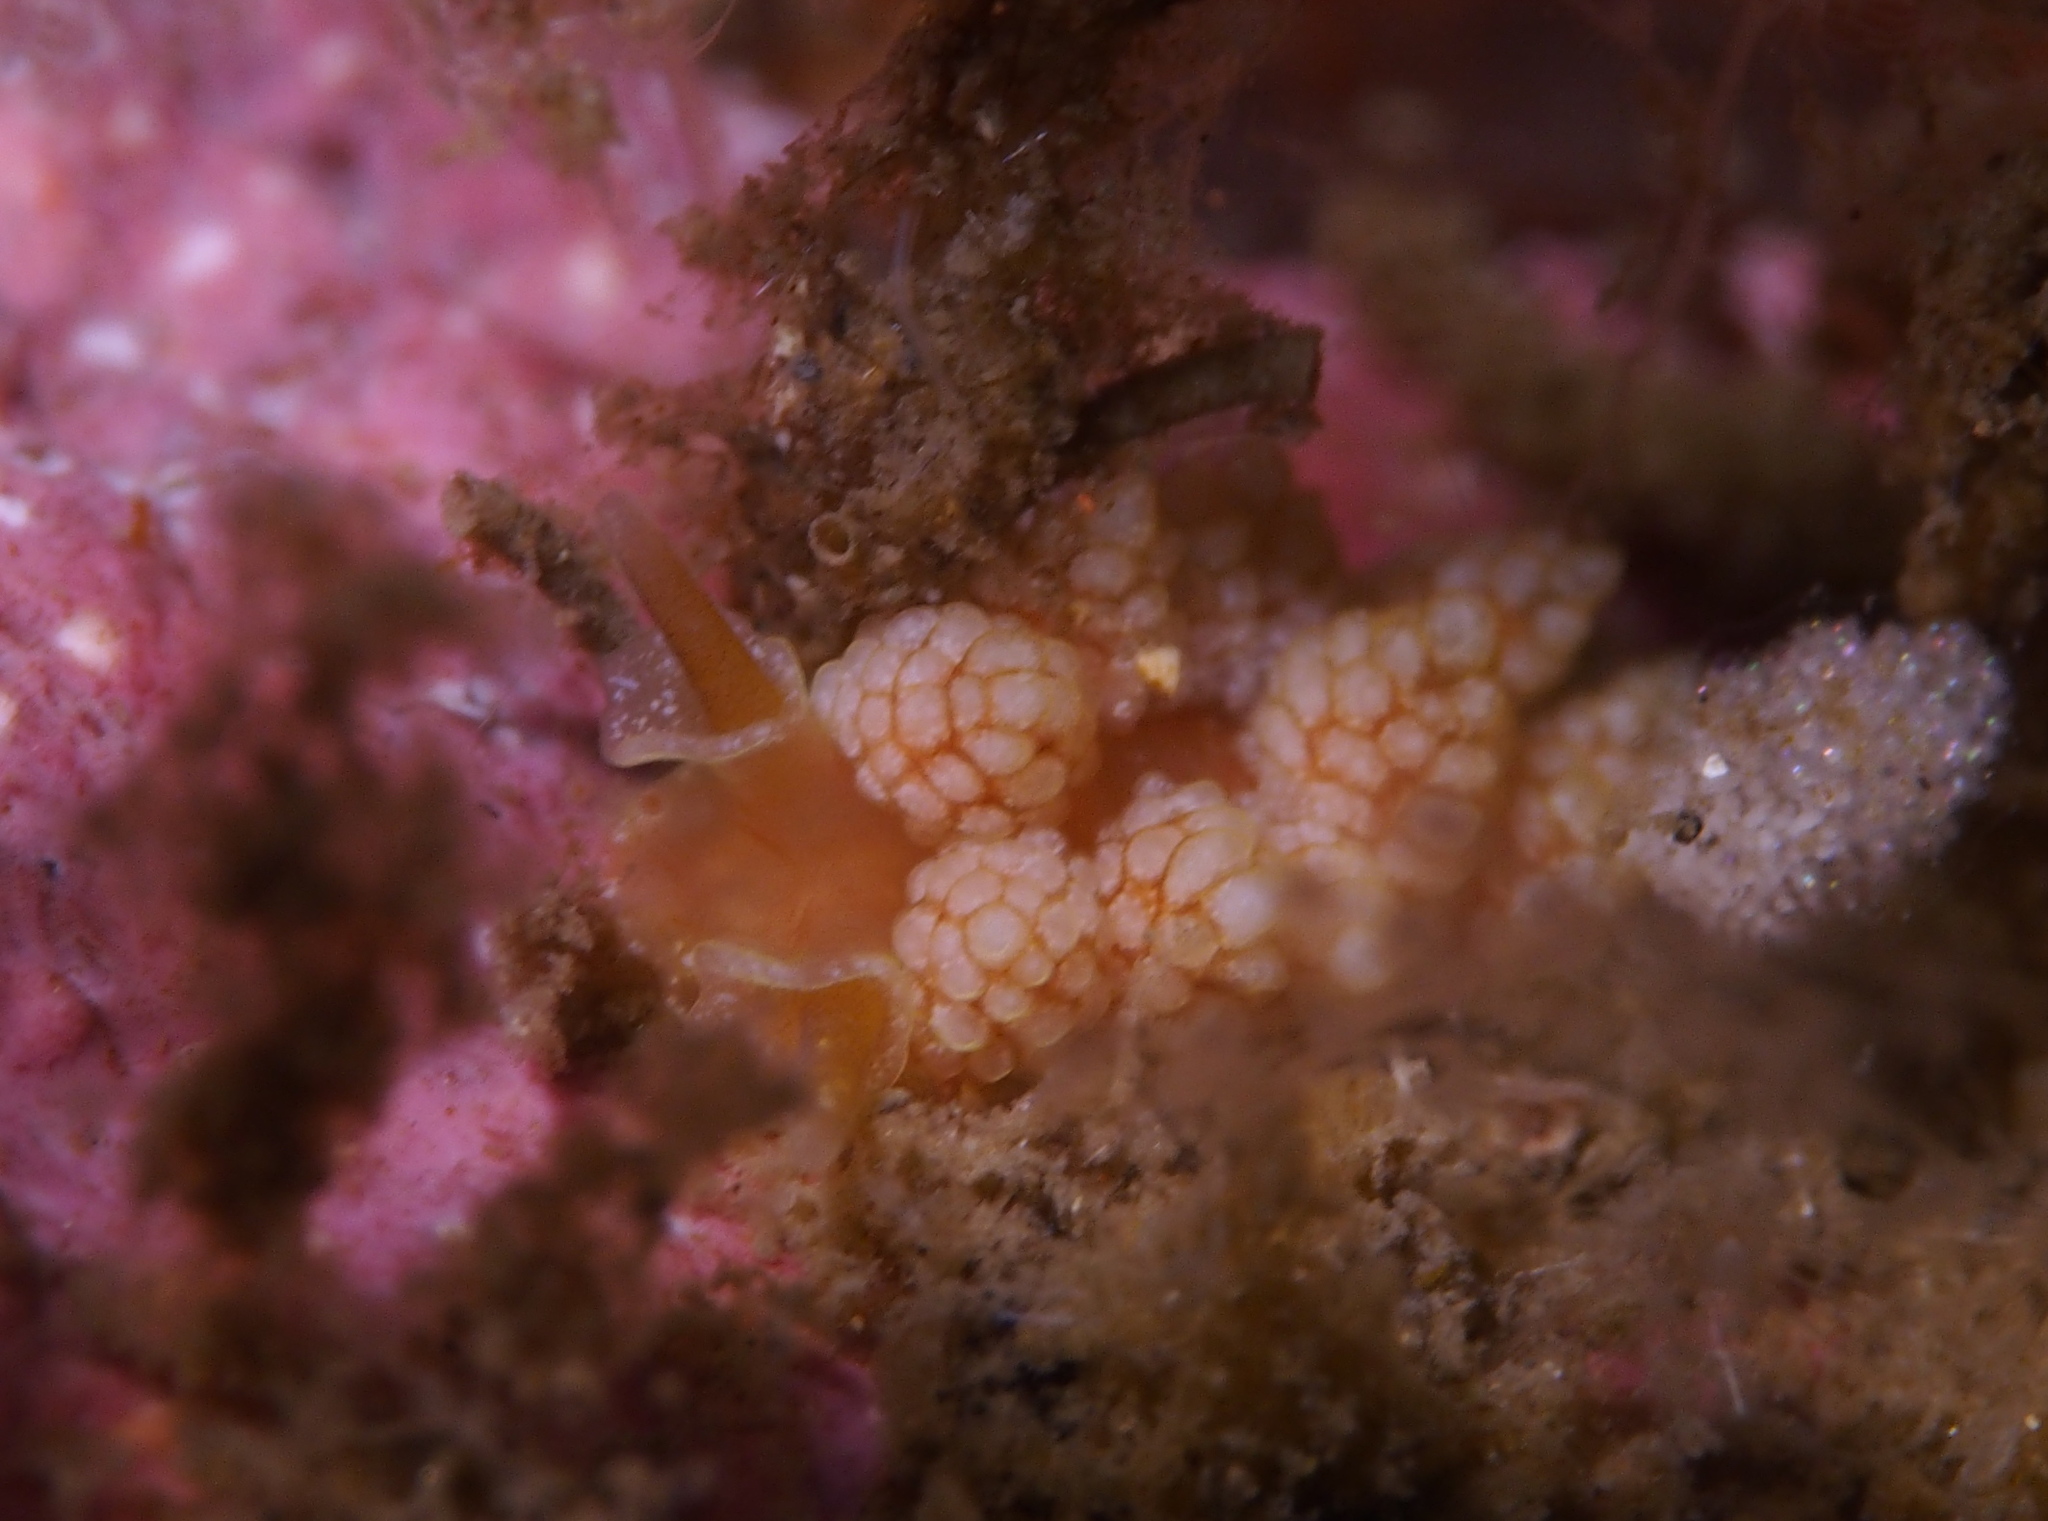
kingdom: Animalia
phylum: Mollusca
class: Gastropoda
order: Nudibranchia
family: Dotidae
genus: Doto
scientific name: Doto fragilis
